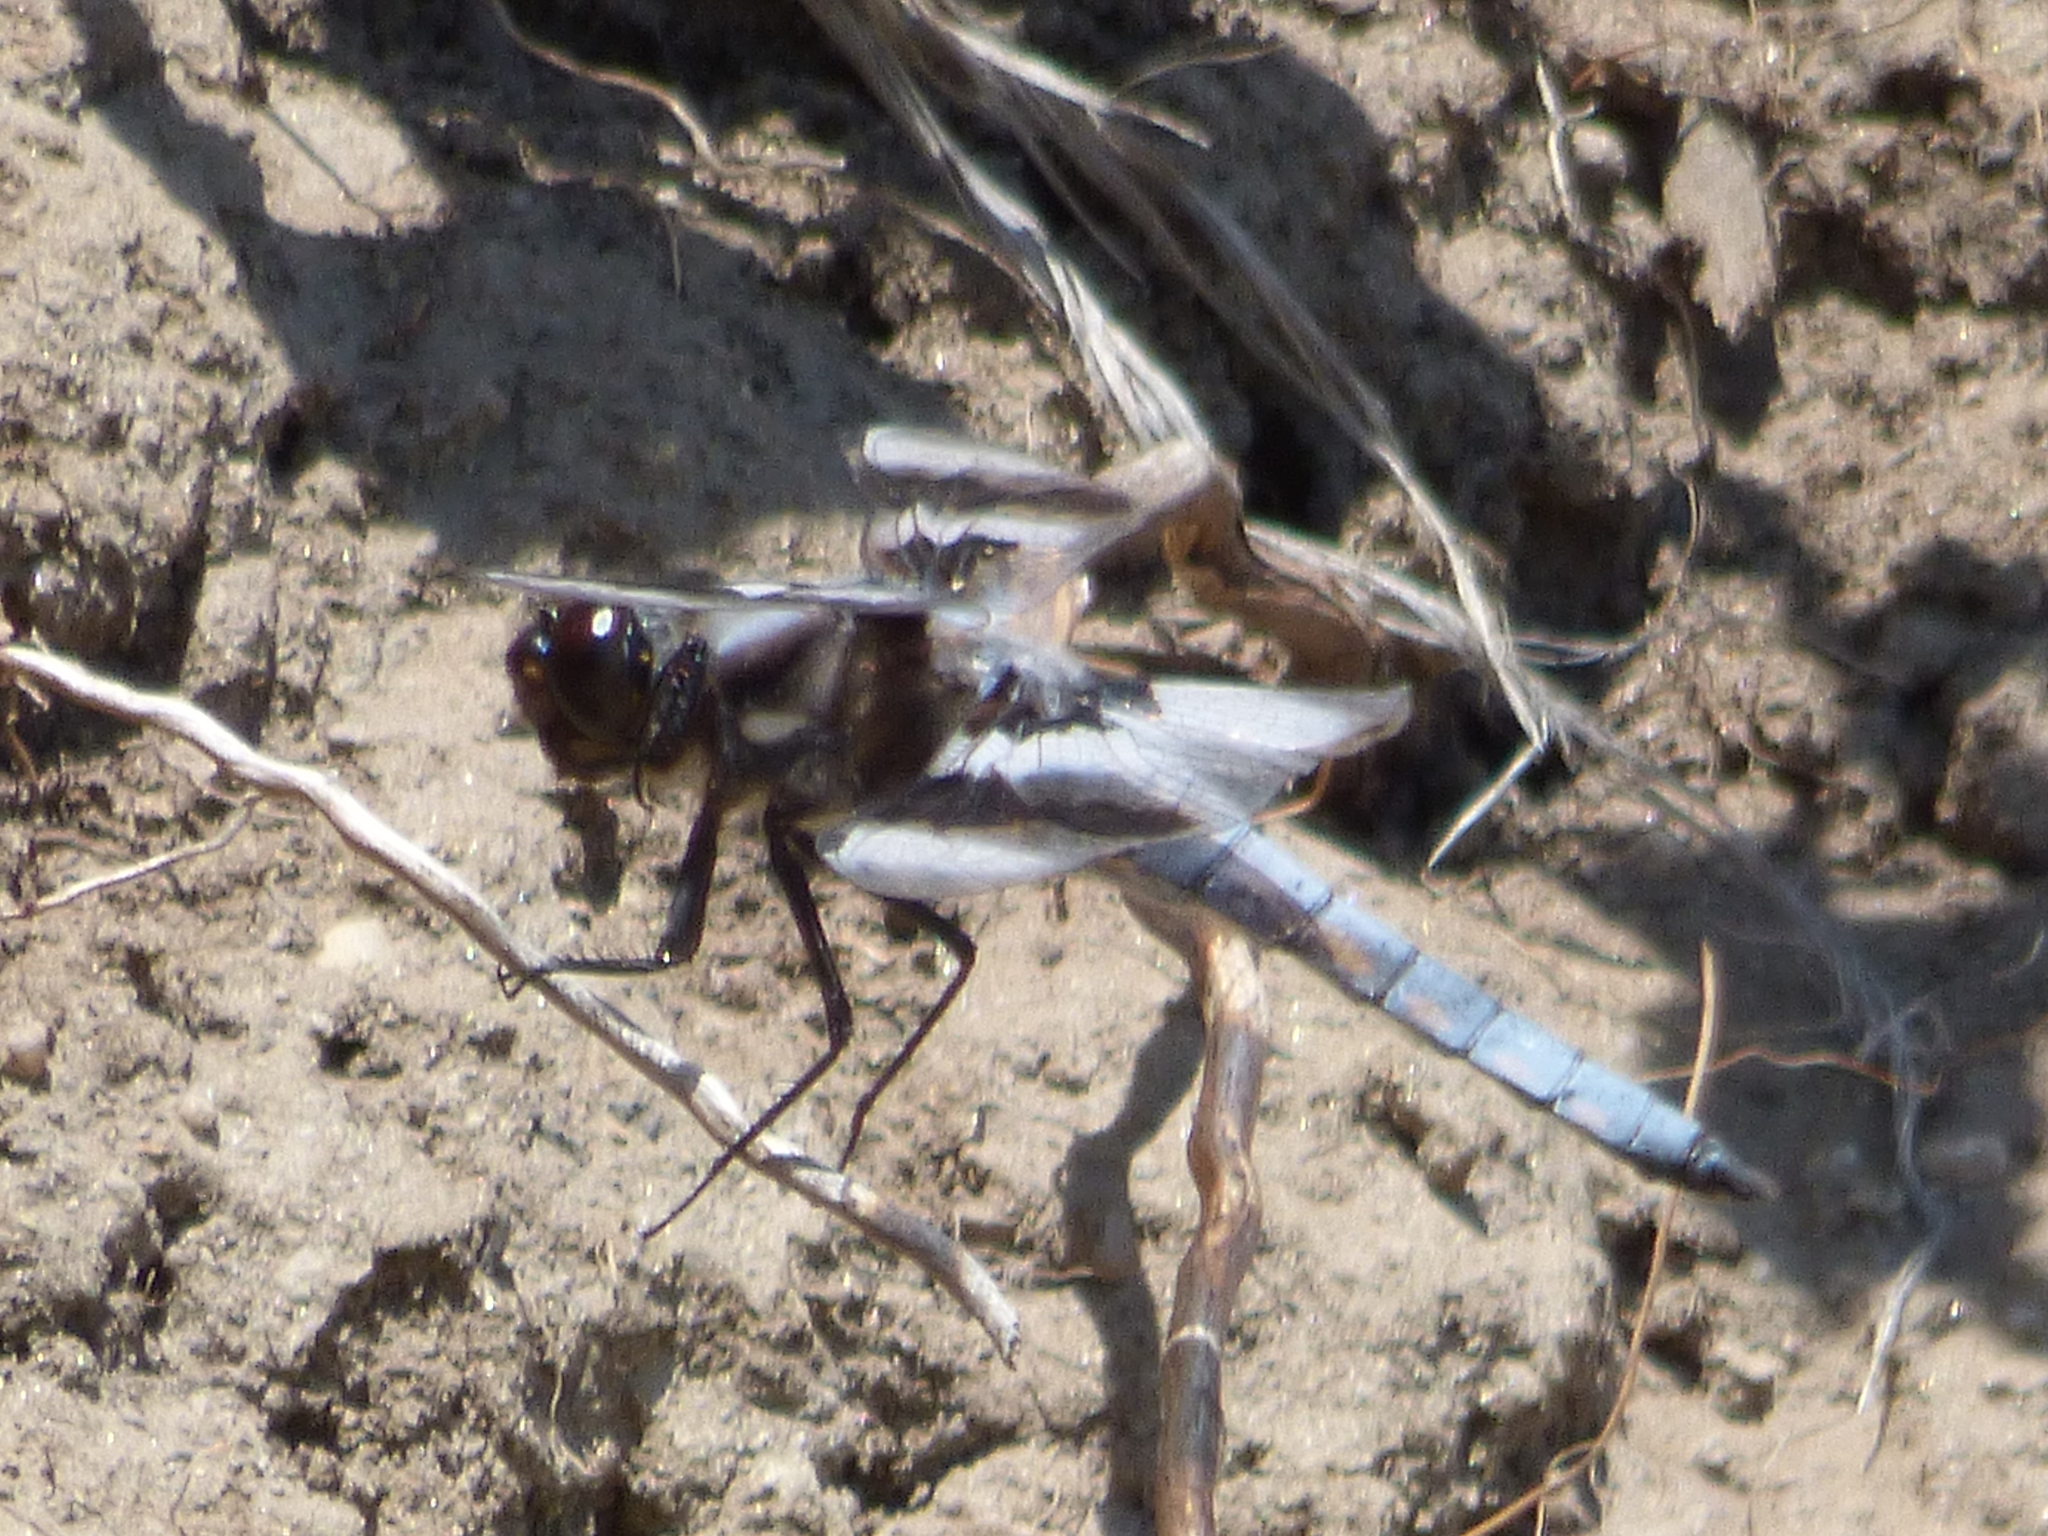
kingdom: Animalia
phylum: Arthropoda
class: Insecta
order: Odonata
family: Libellulidae
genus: Libellula
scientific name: Libellula forensis
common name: Eight-spotted skimmer
